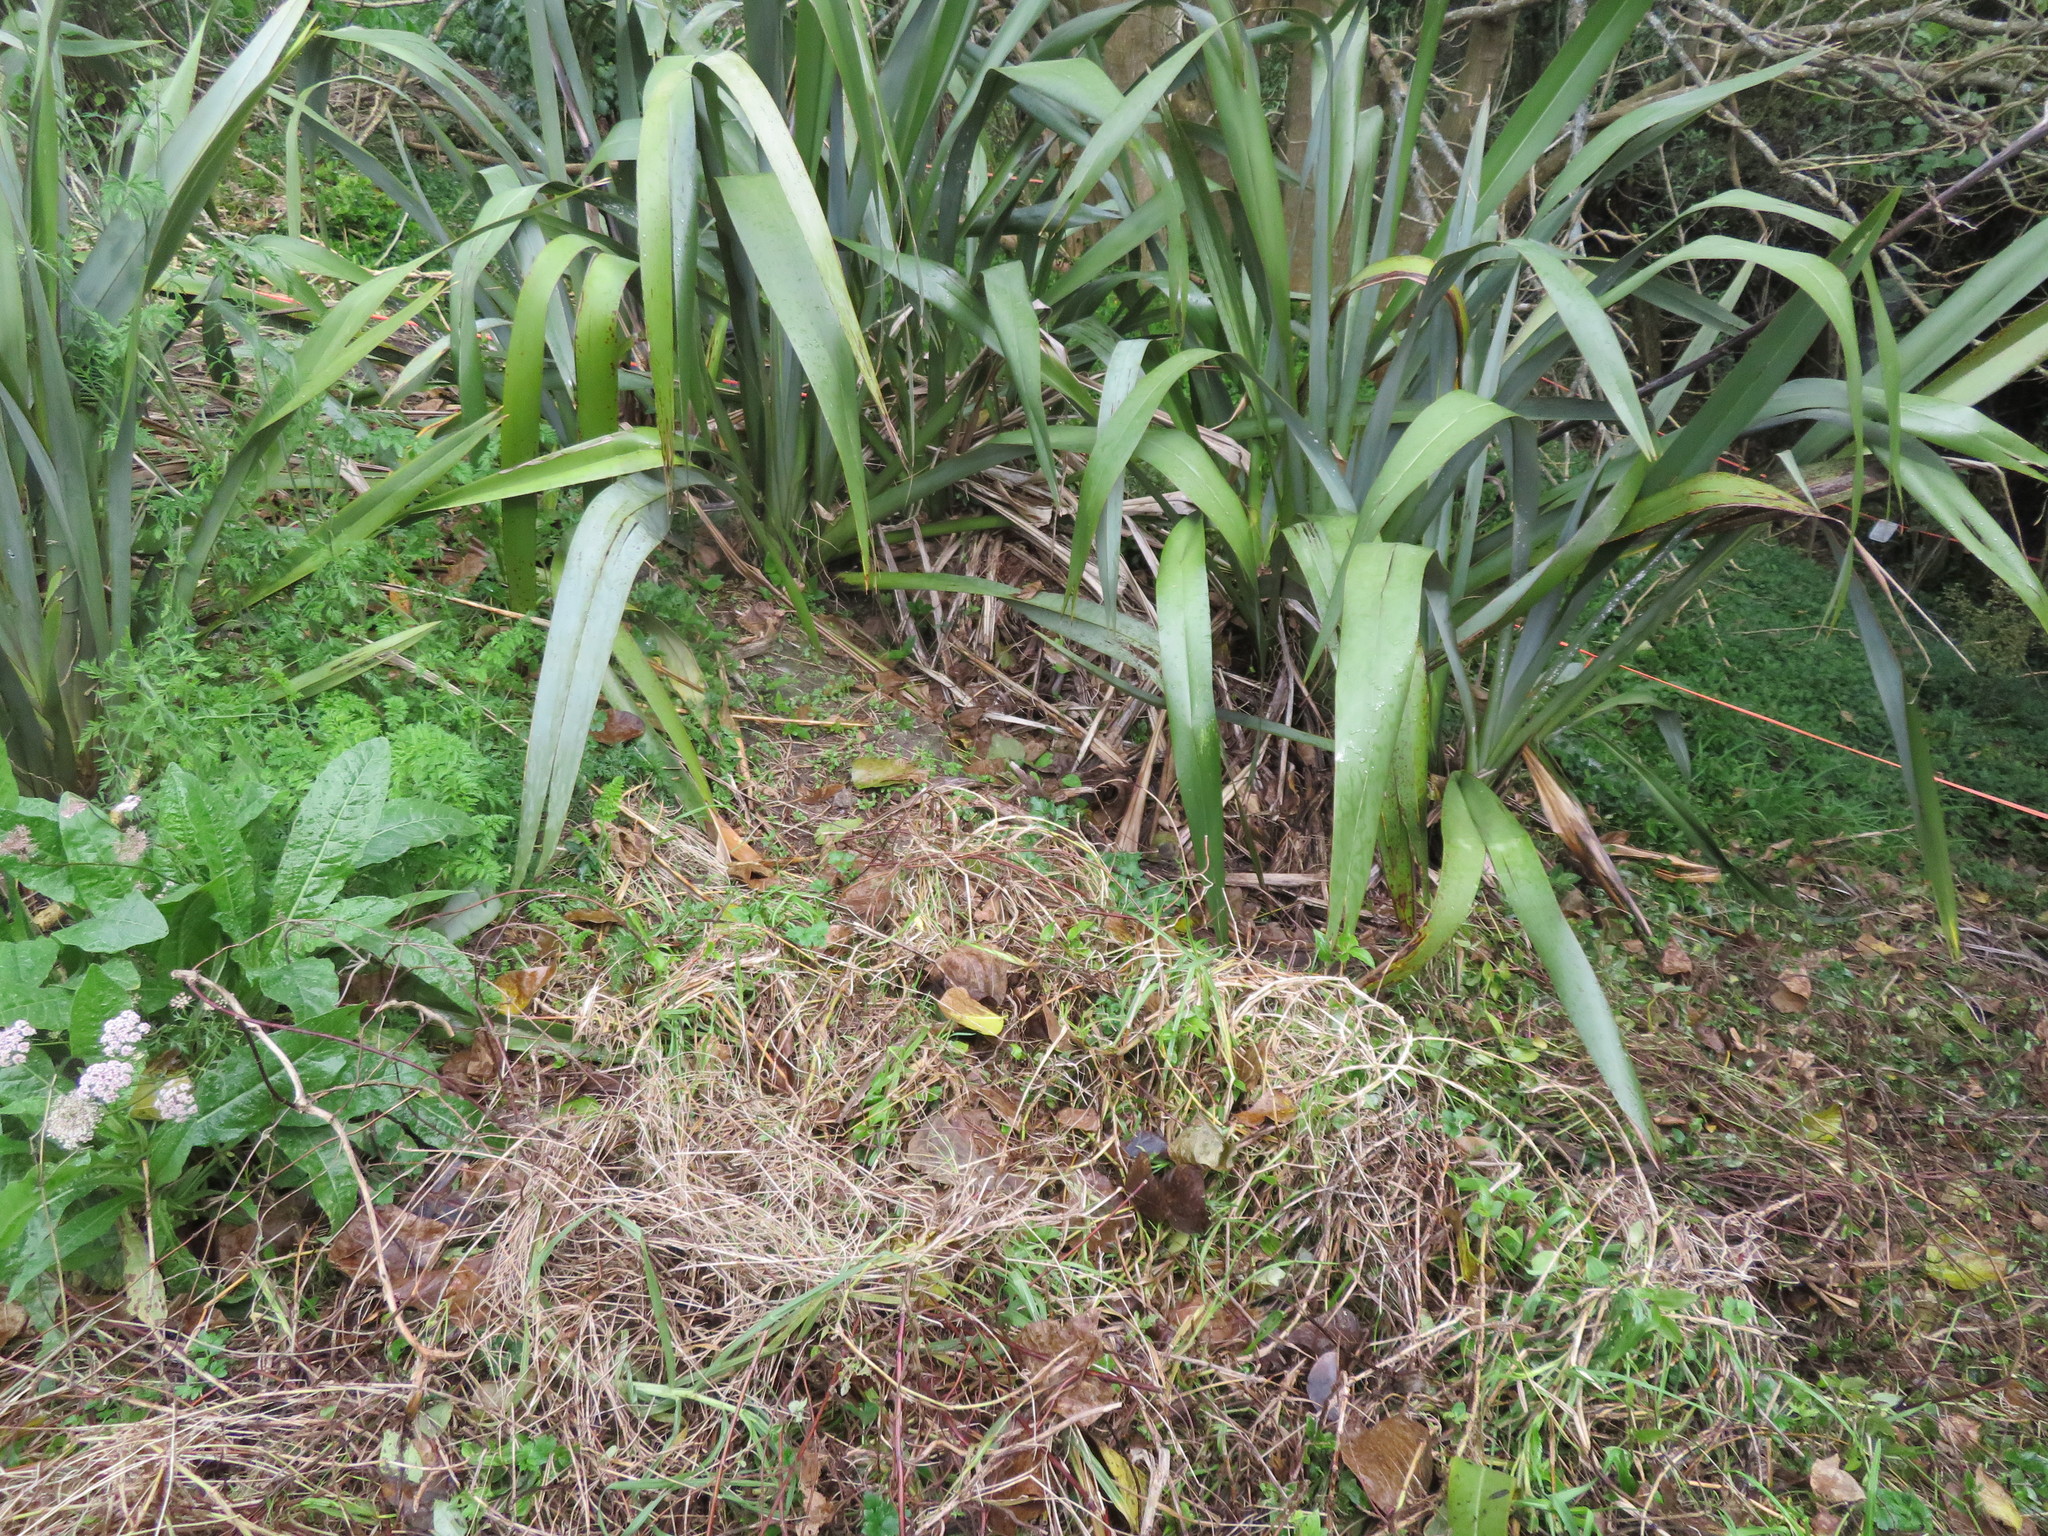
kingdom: Plantae
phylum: Tracheophyta
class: Liliopsida
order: Poales
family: Poaceae
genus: Cenchrus
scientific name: Cenchrus clandestinus
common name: Kikuyugrass
